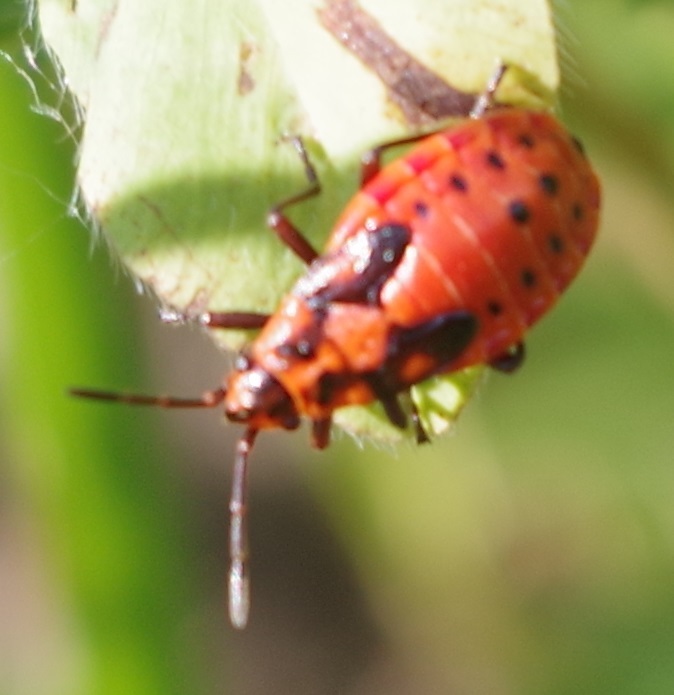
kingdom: Animalia
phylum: Arthropoda
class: Insecta
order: Hemiptera
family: Lygaeidae
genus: Spilostethus
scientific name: Spilostethus saxatilis
